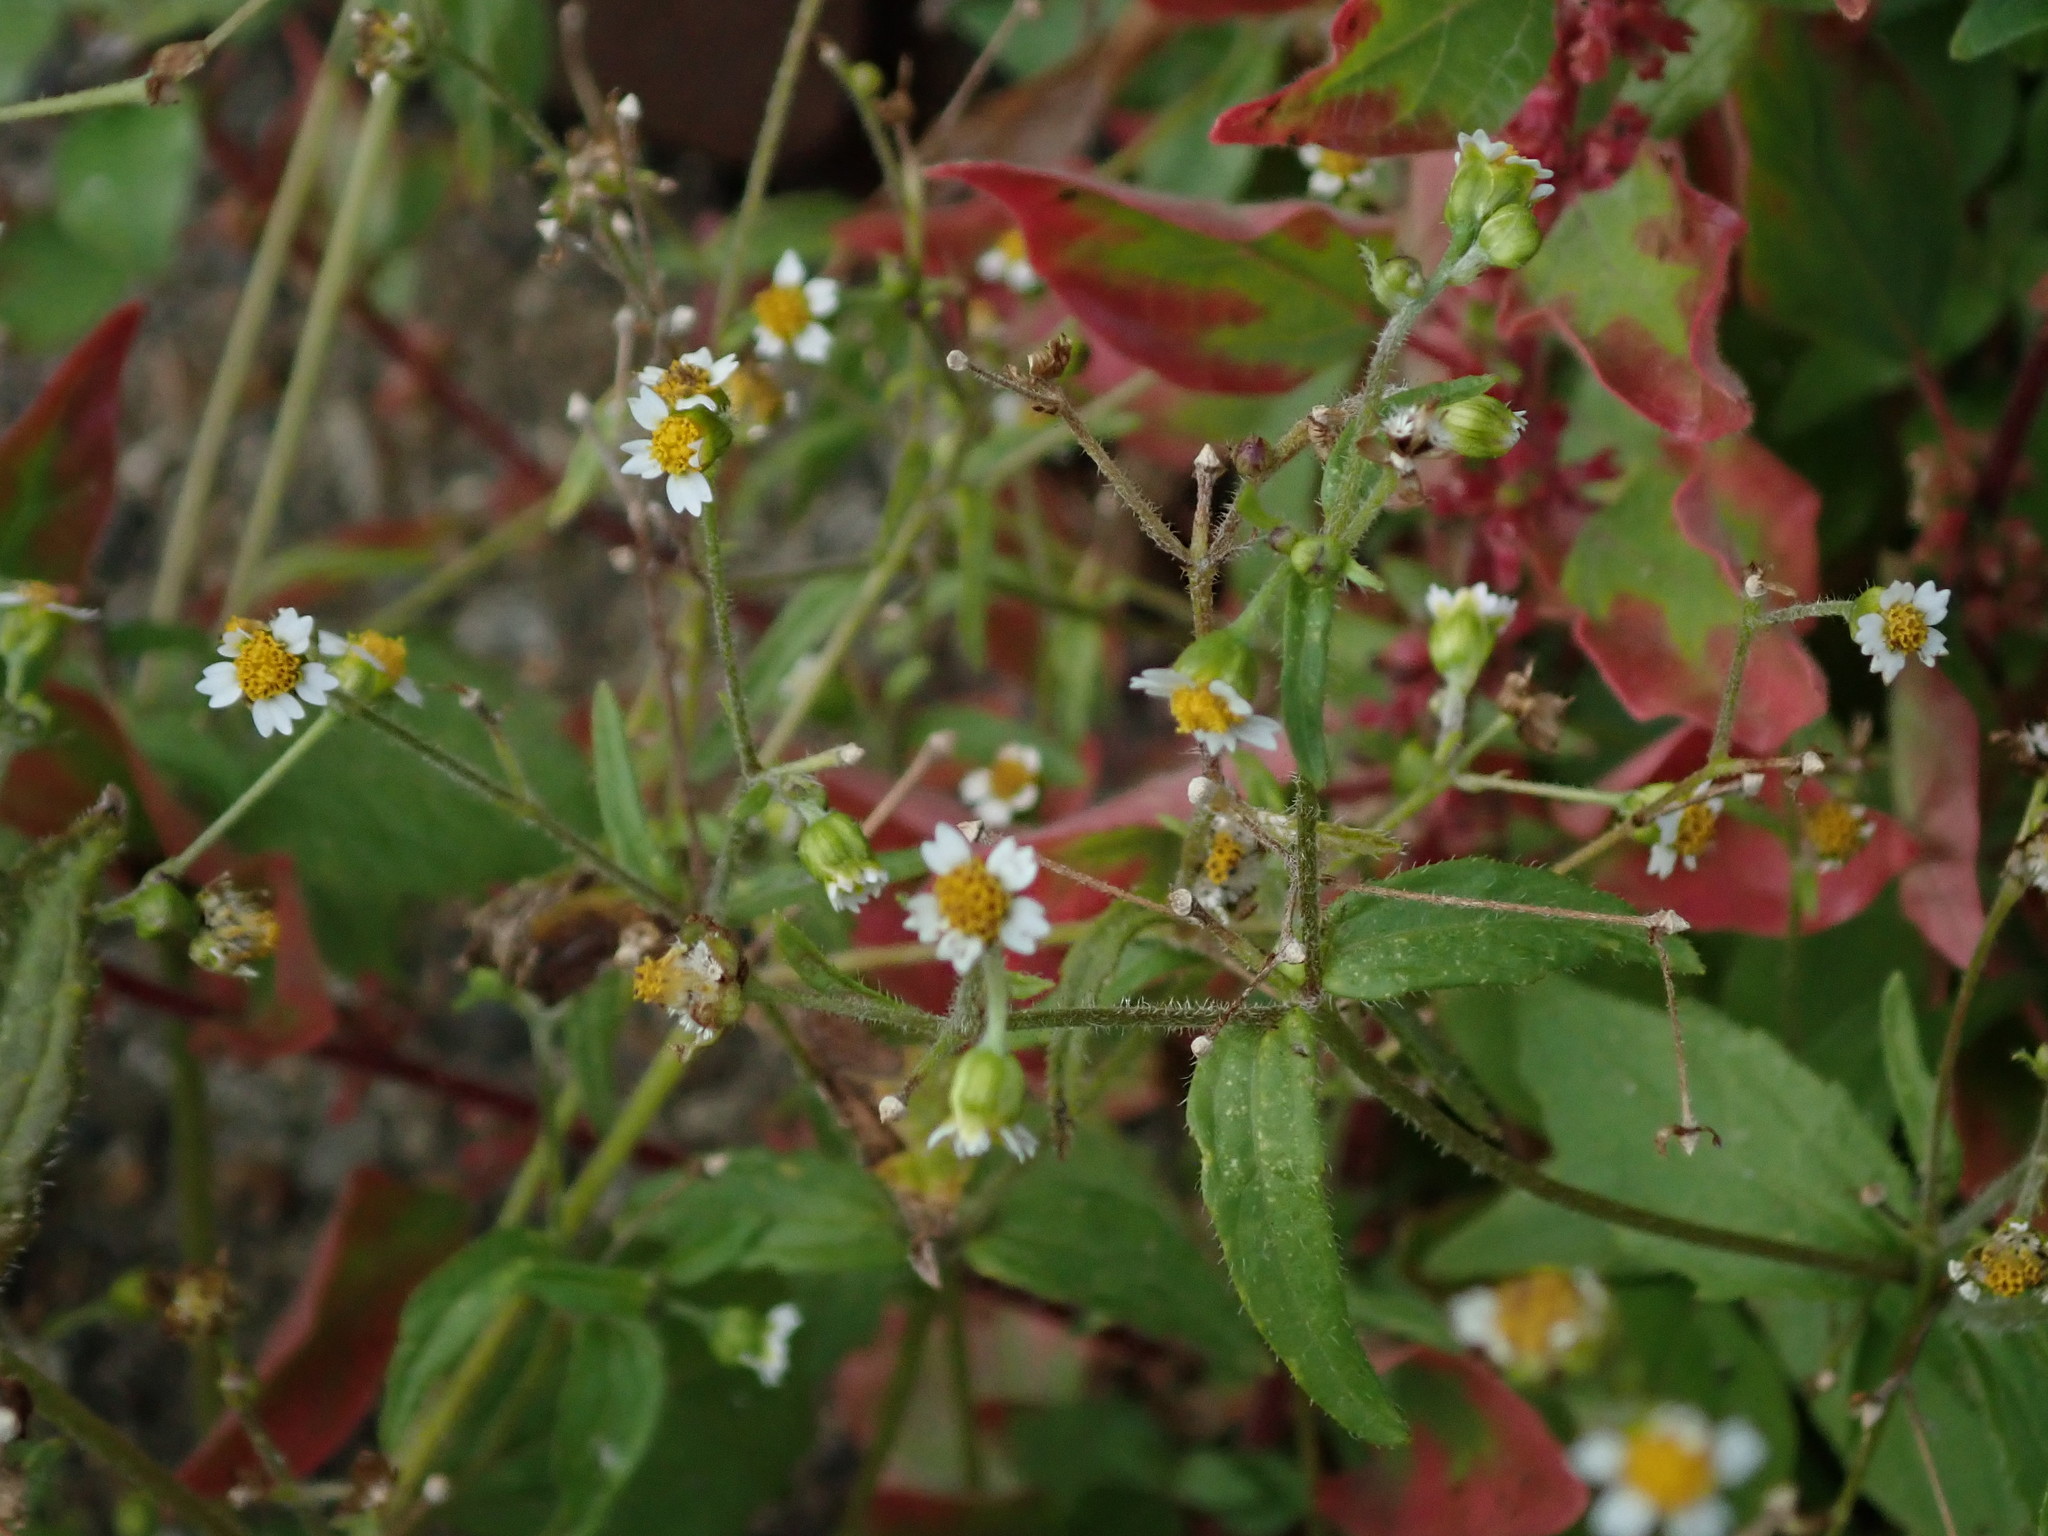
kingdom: Plantae
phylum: Tracheophyta
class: Magnoliopsida
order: Asterales
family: Asteraceae
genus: Galinsoga
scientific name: Galinsoga quadriradiata
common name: Shaggy soldier
